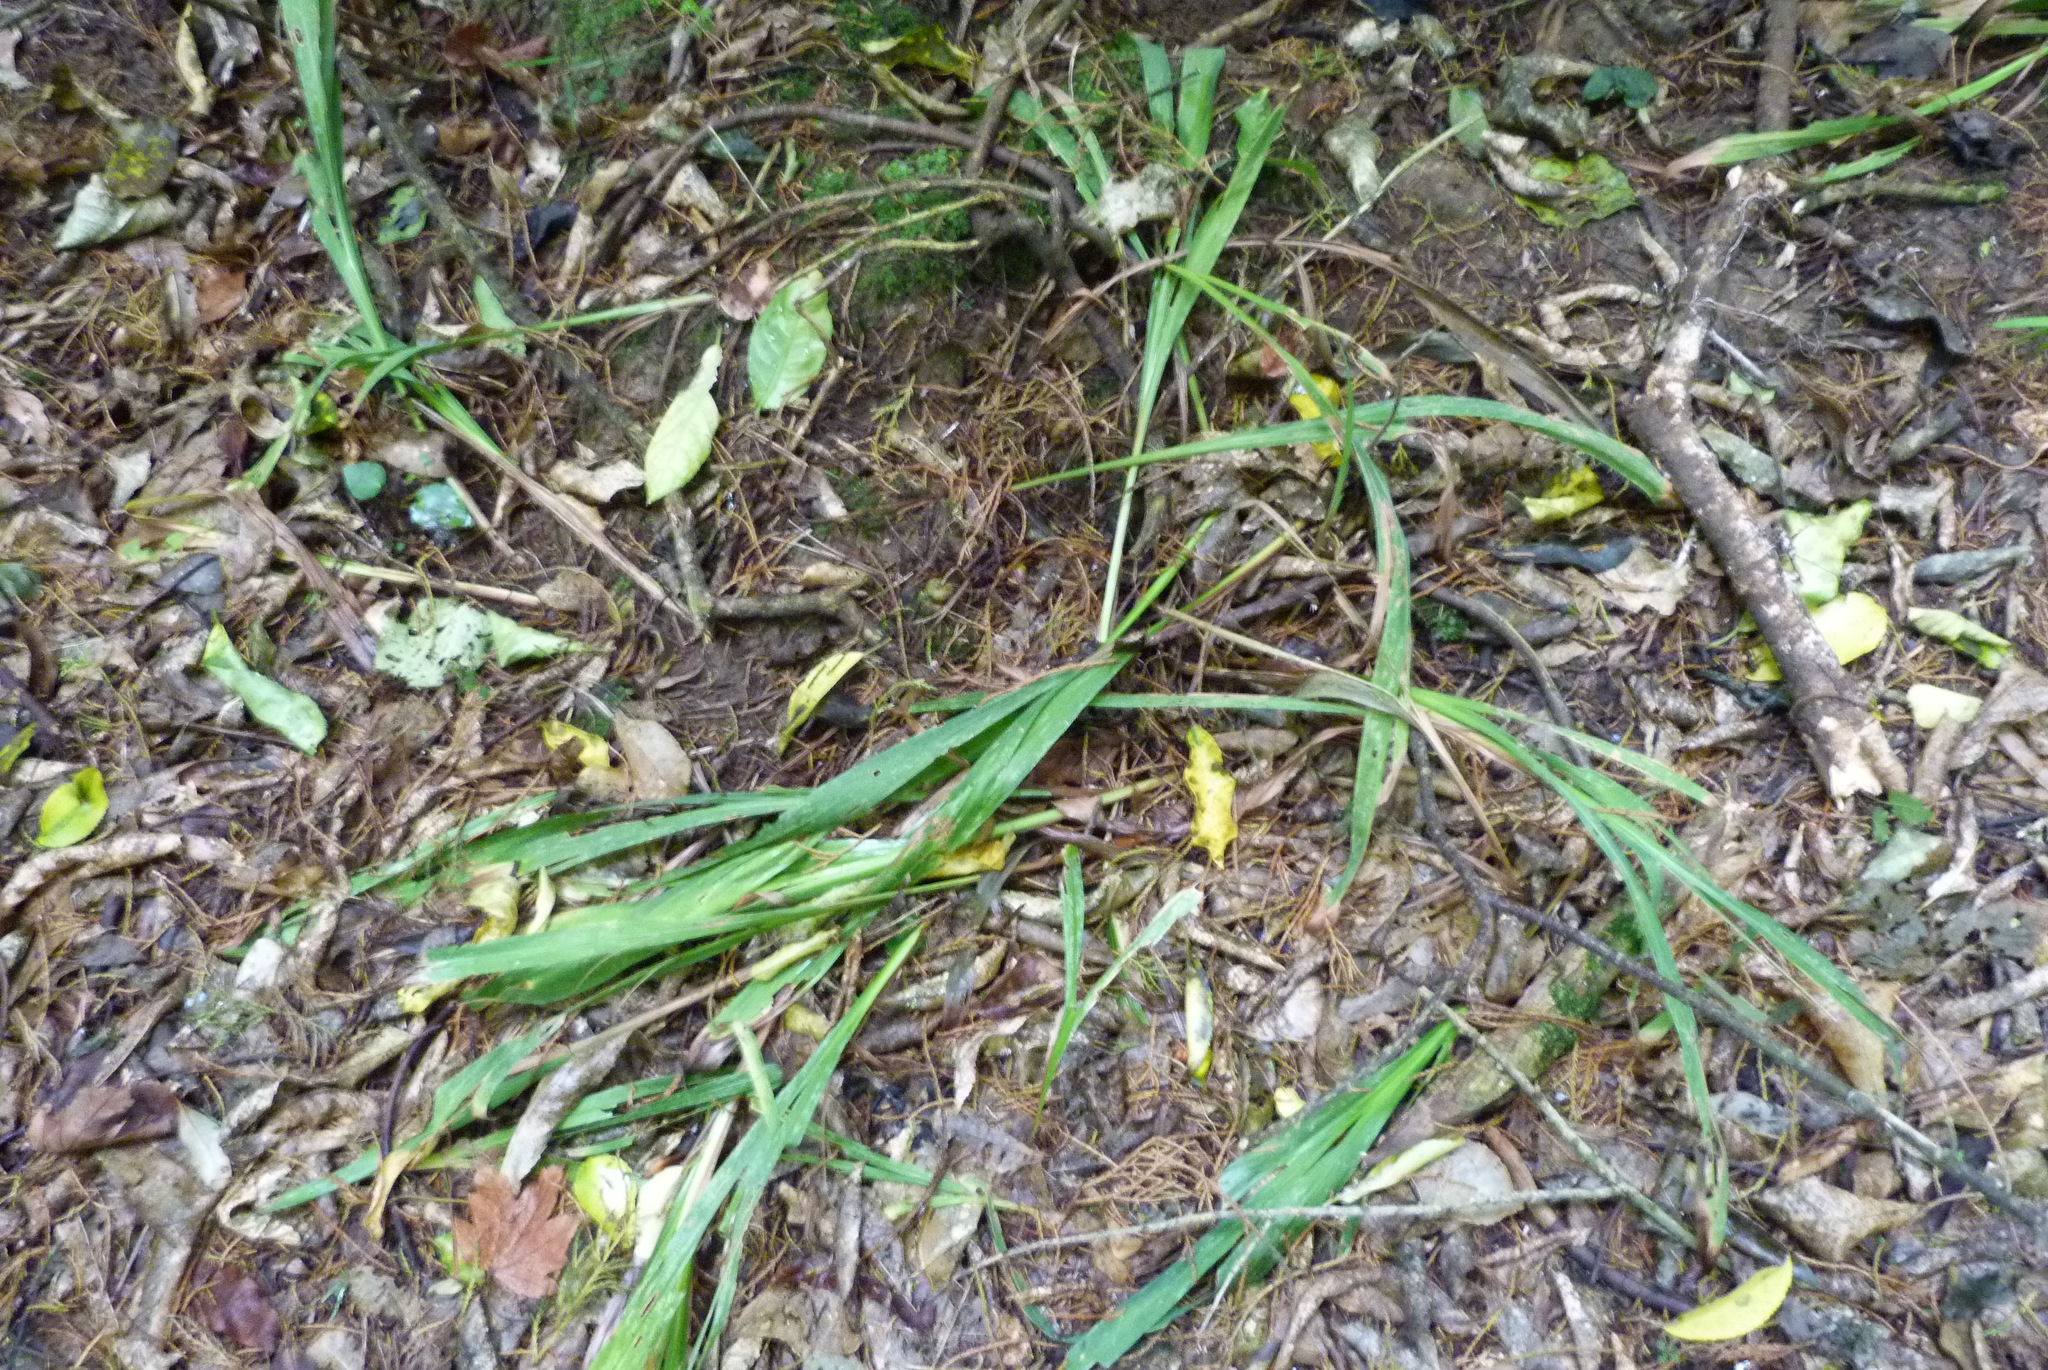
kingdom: Plantae
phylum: Tracheophyta
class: Liliopsida
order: Asparagales
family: Iridaceae
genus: Crocosmia
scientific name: Crocosmia crocosmiiflora
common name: Montbretia
